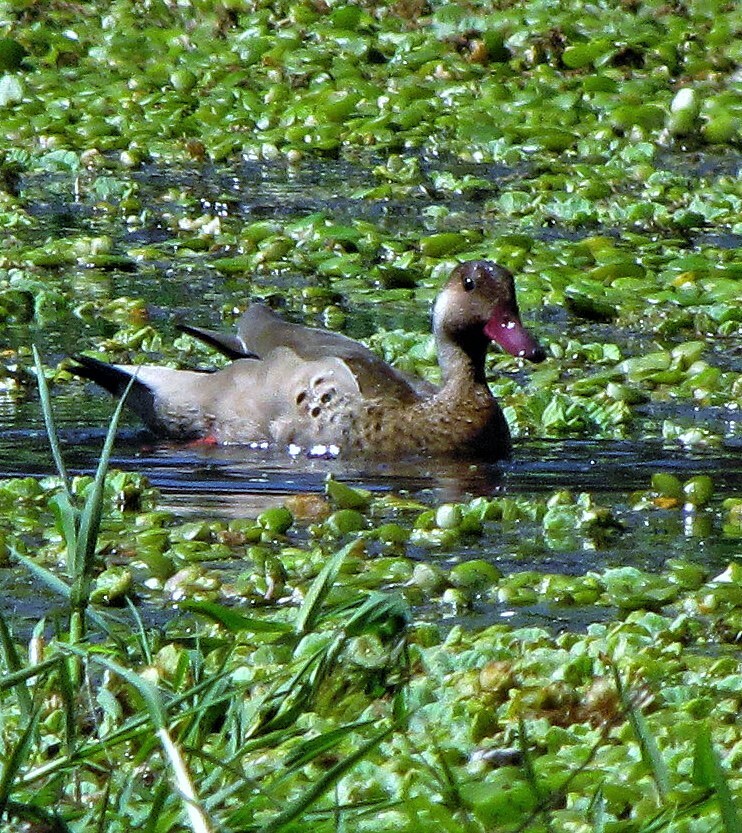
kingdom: Animalia
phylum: Chordata
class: Aves
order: Anseriformes
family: Anatidae
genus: Amazonetta
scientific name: Amazonetta brasiliensis
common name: Brazilian teal
